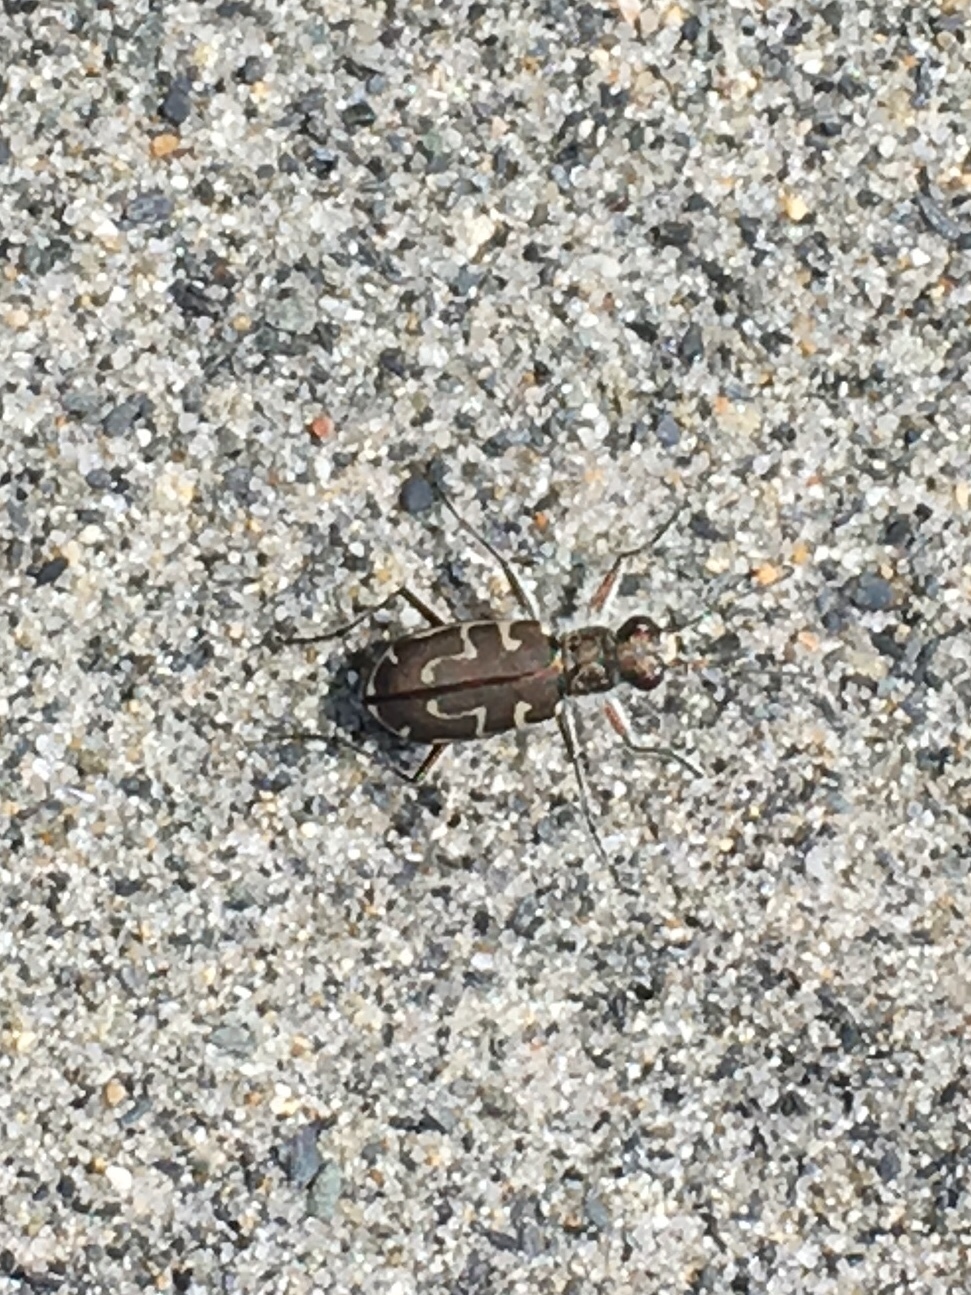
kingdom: Animalia
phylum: Arthropoda
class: Insecta
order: Coleoptera
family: Carabidae
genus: Cicindela
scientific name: Cicindela hirticollis
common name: Hairy-necked tiger beetle
